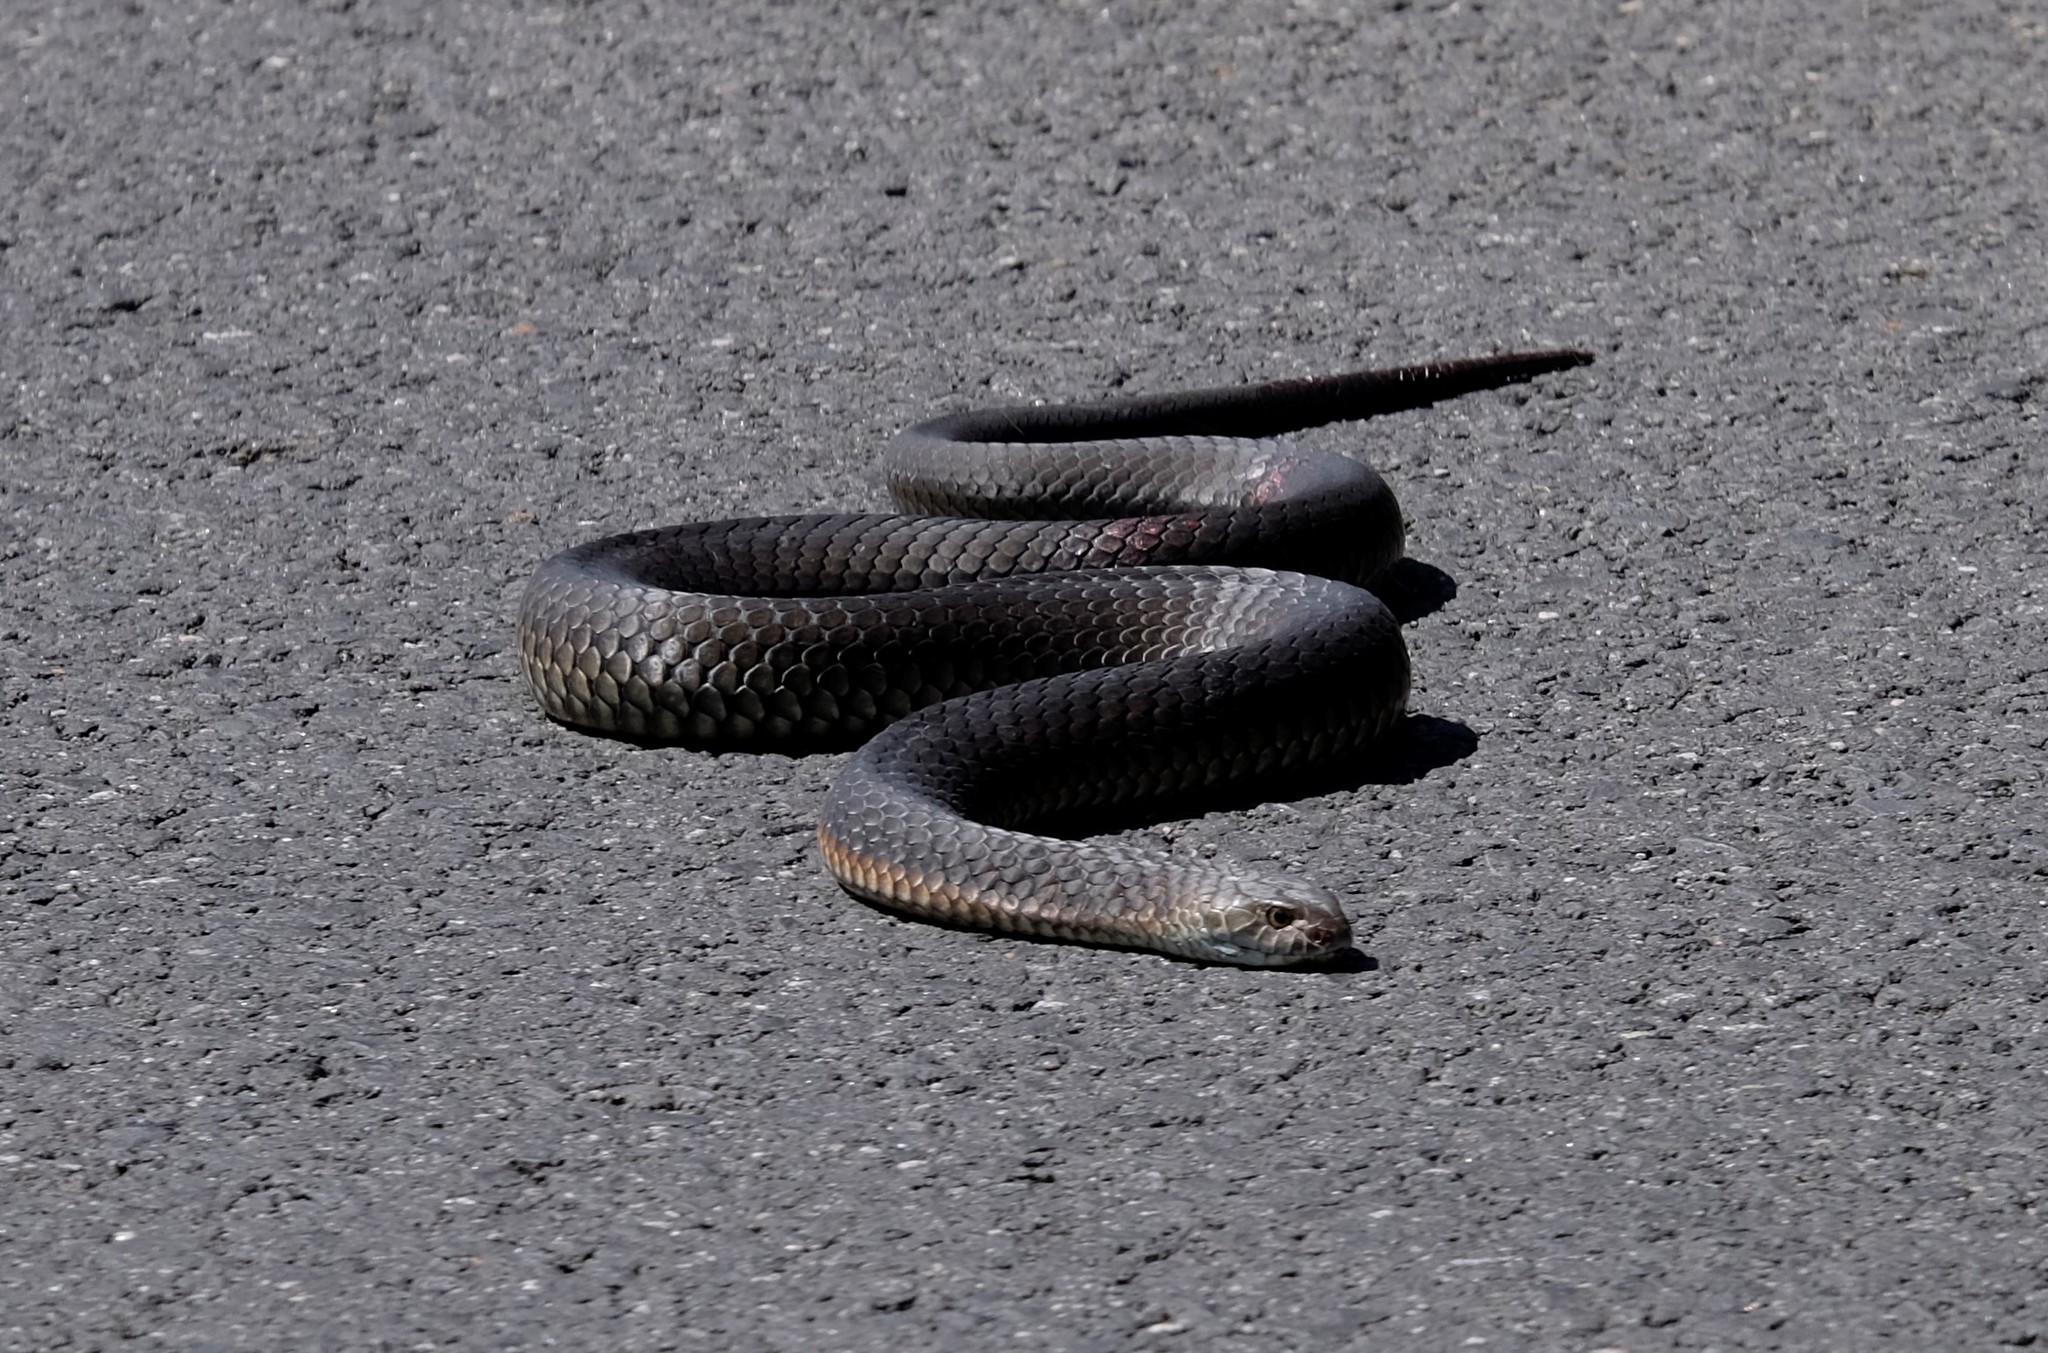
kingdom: Animalia
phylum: Chordata
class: Squamata
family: Elapidae
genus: Austrelaps
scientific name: Austrelaps superbus
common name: Copperhead snake
